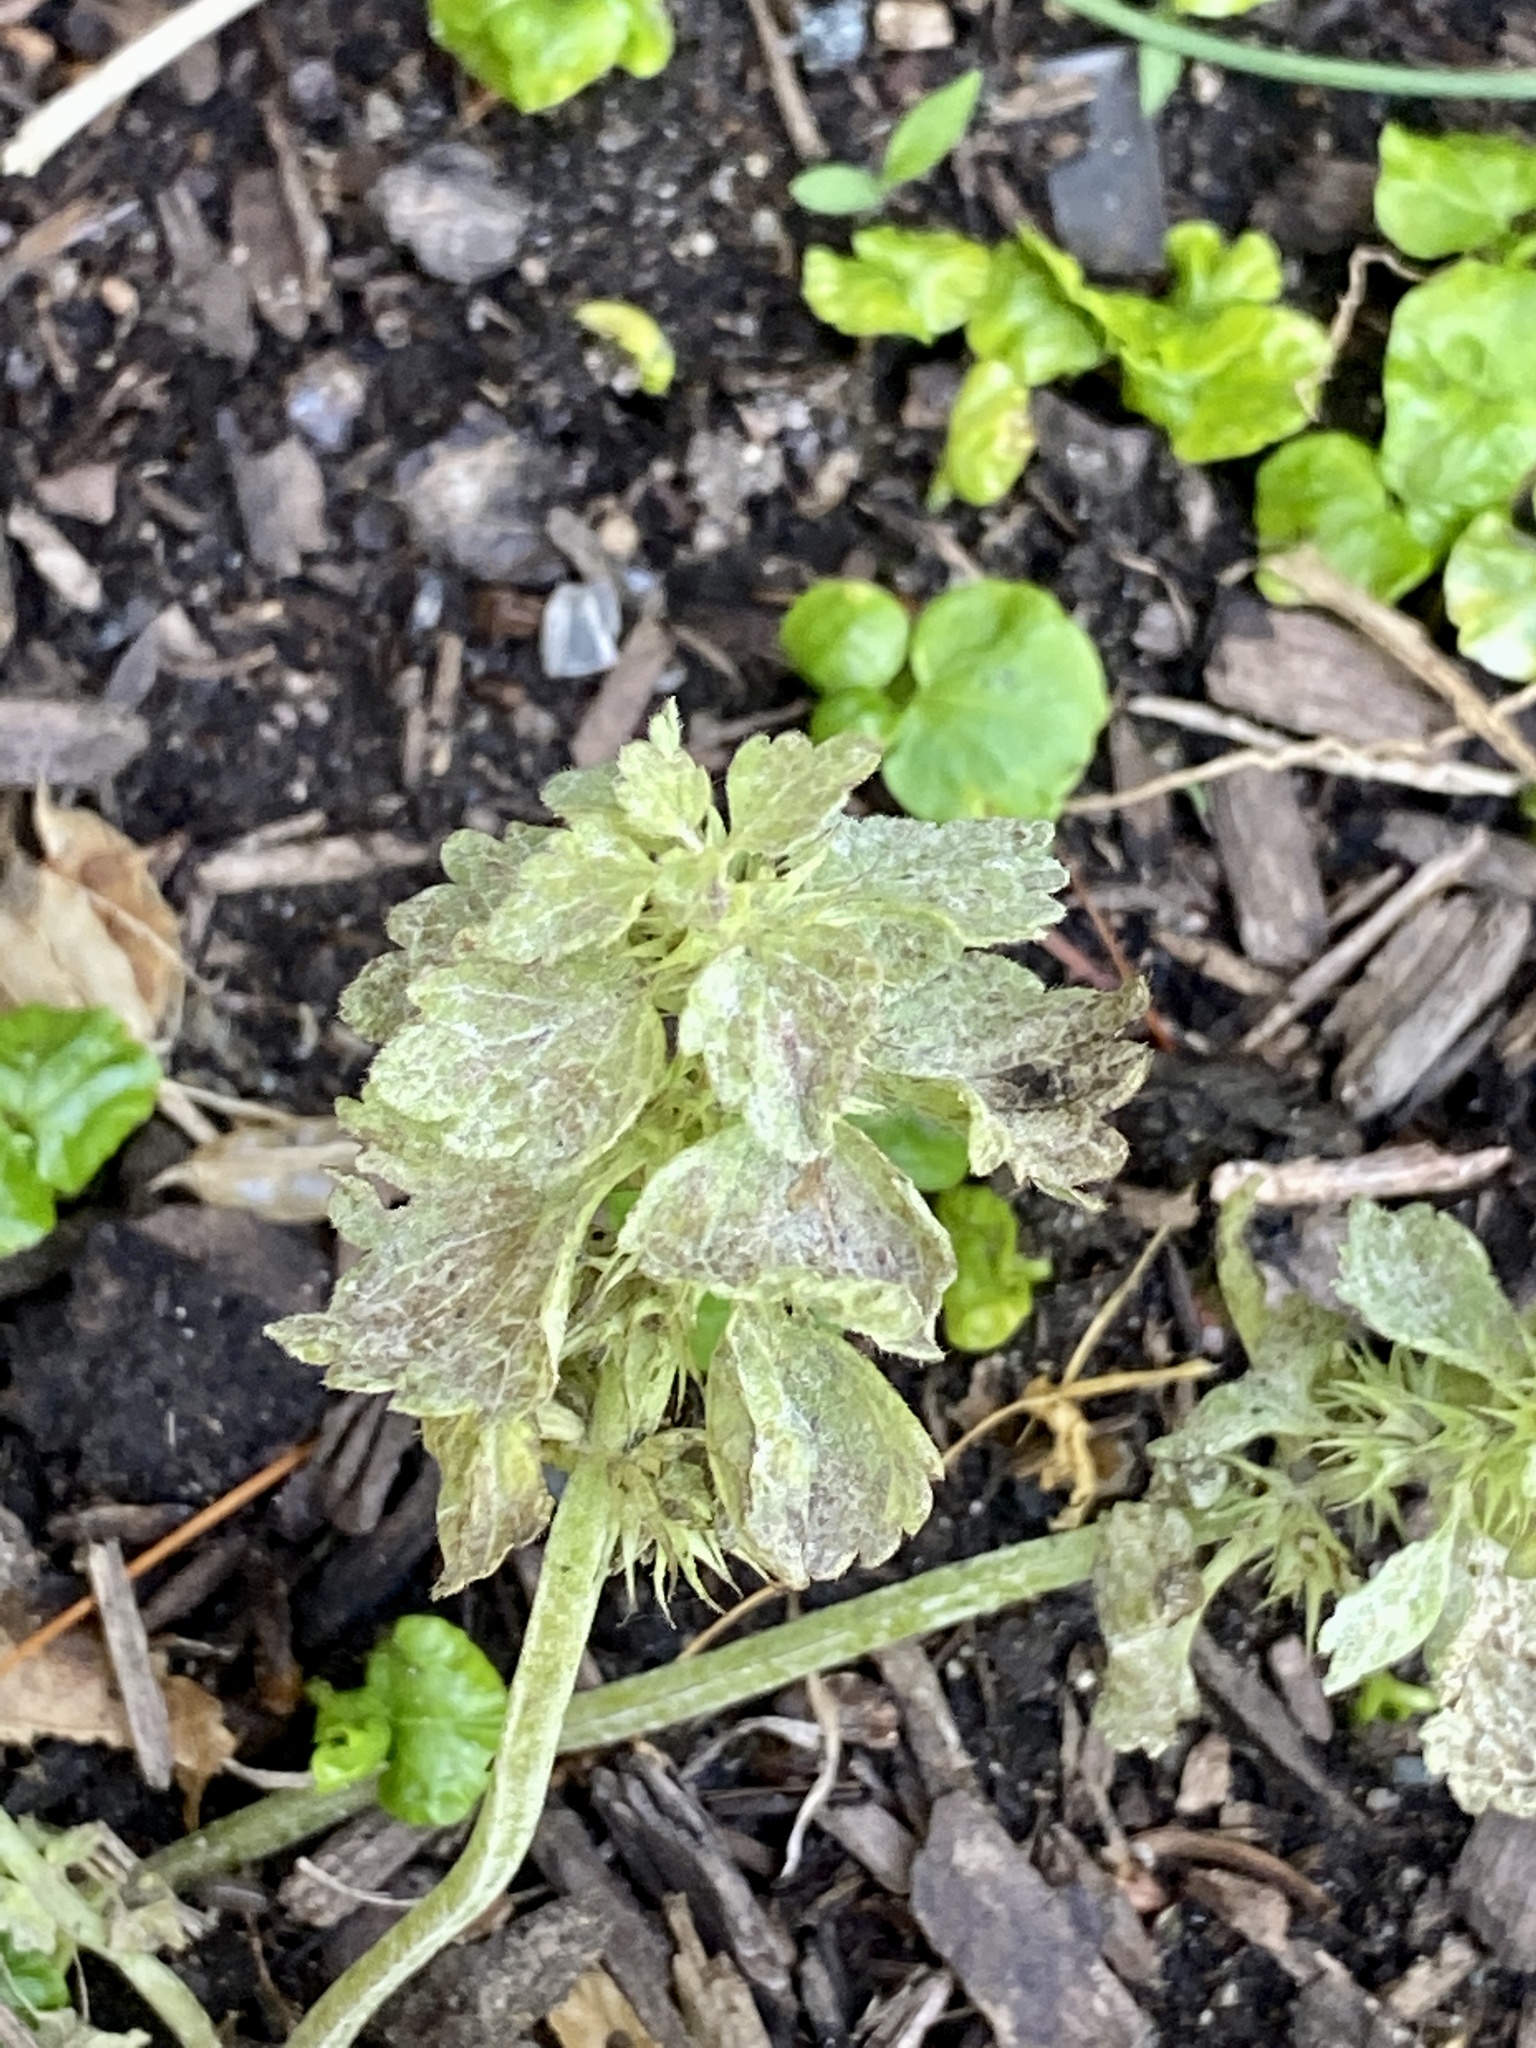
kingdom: Plantae
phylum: Tracheophyta
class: Magnoliopsida
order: Lamiales
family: Lamiaceae
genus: Lamium
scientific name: Lamium purpureum
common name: Red dead-nettle
